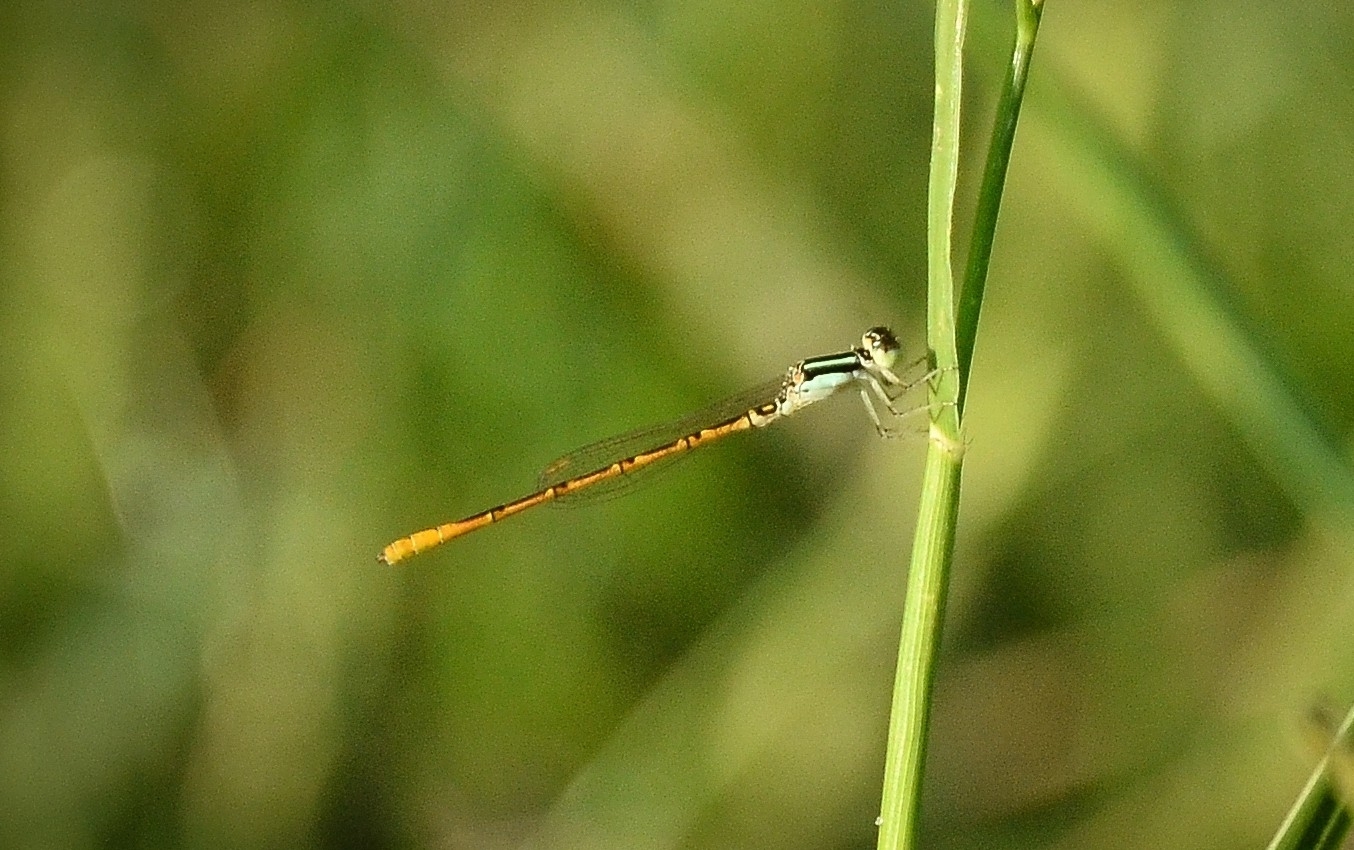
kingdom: Animalia
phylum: Arthropoda
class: Insecta
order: Odonata
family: Coenagrionidae
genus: Agriocnemis
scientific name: Agriocnemis keralensis
